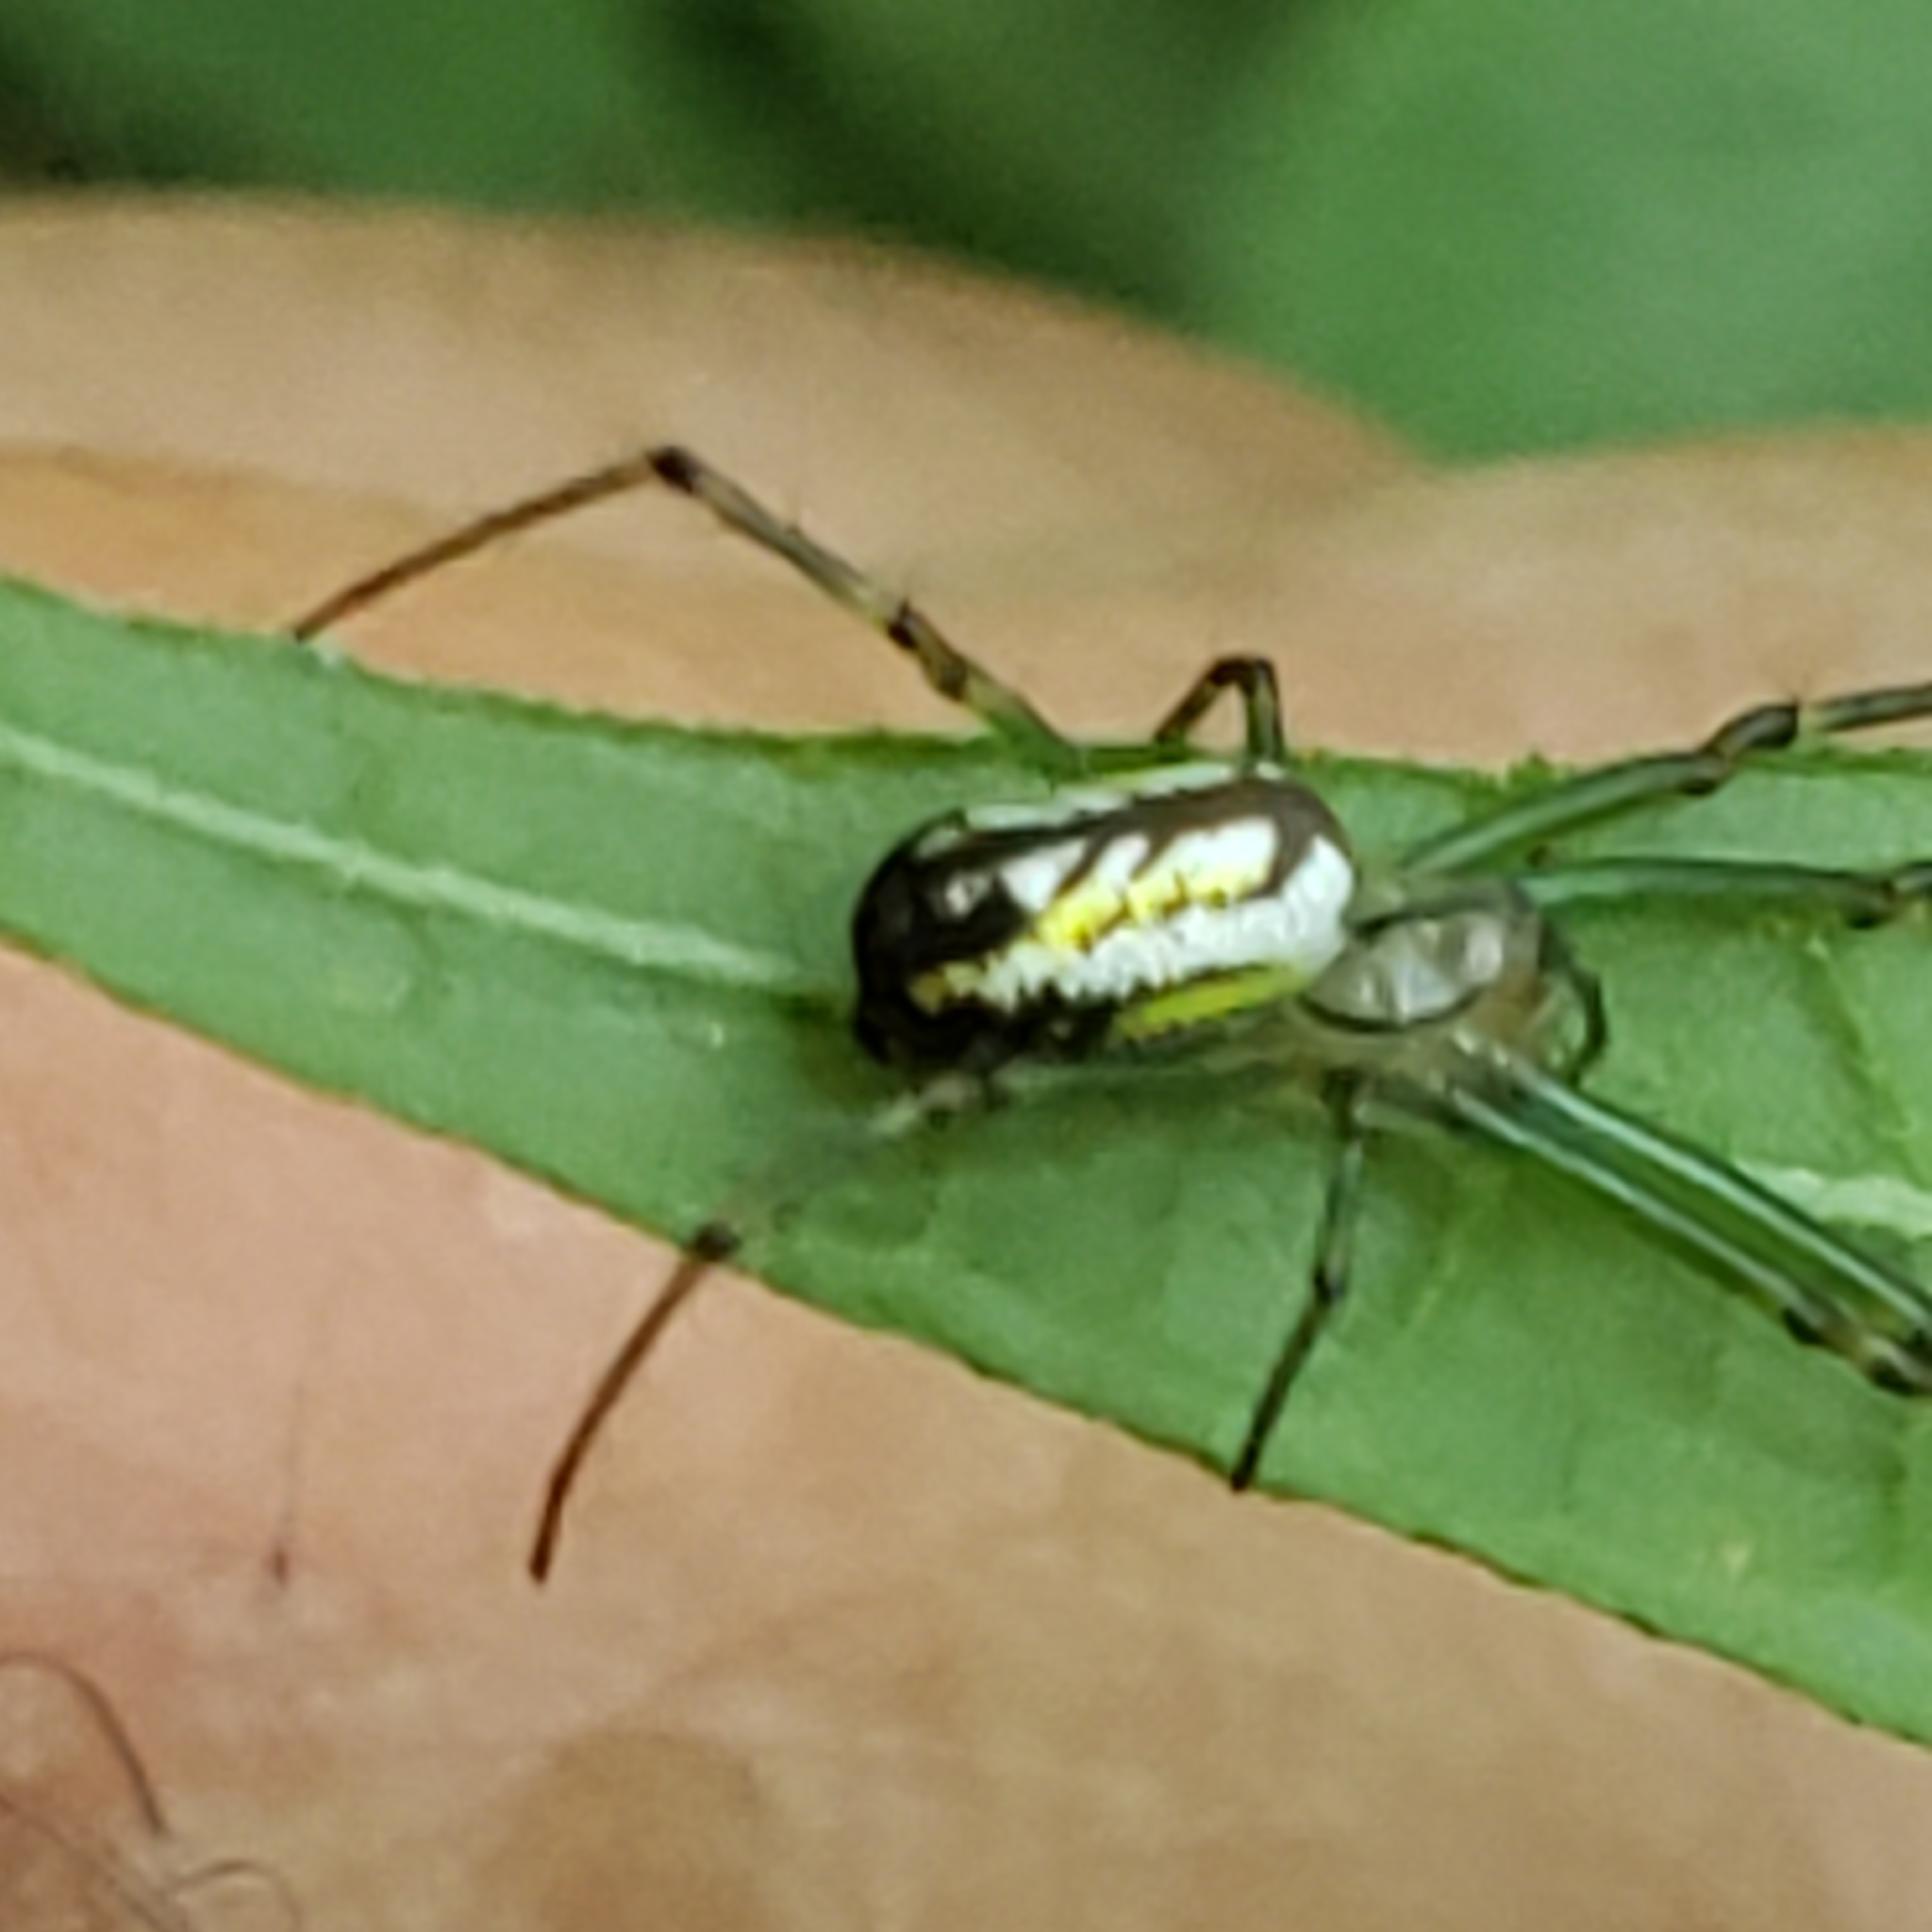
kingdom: Animalia
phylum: Arthropoda
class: Arachnida
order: Araneae
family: Tetragnathidae
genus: Leucauge
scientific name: Leucauge venusta
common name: Longjawed orb weavers
